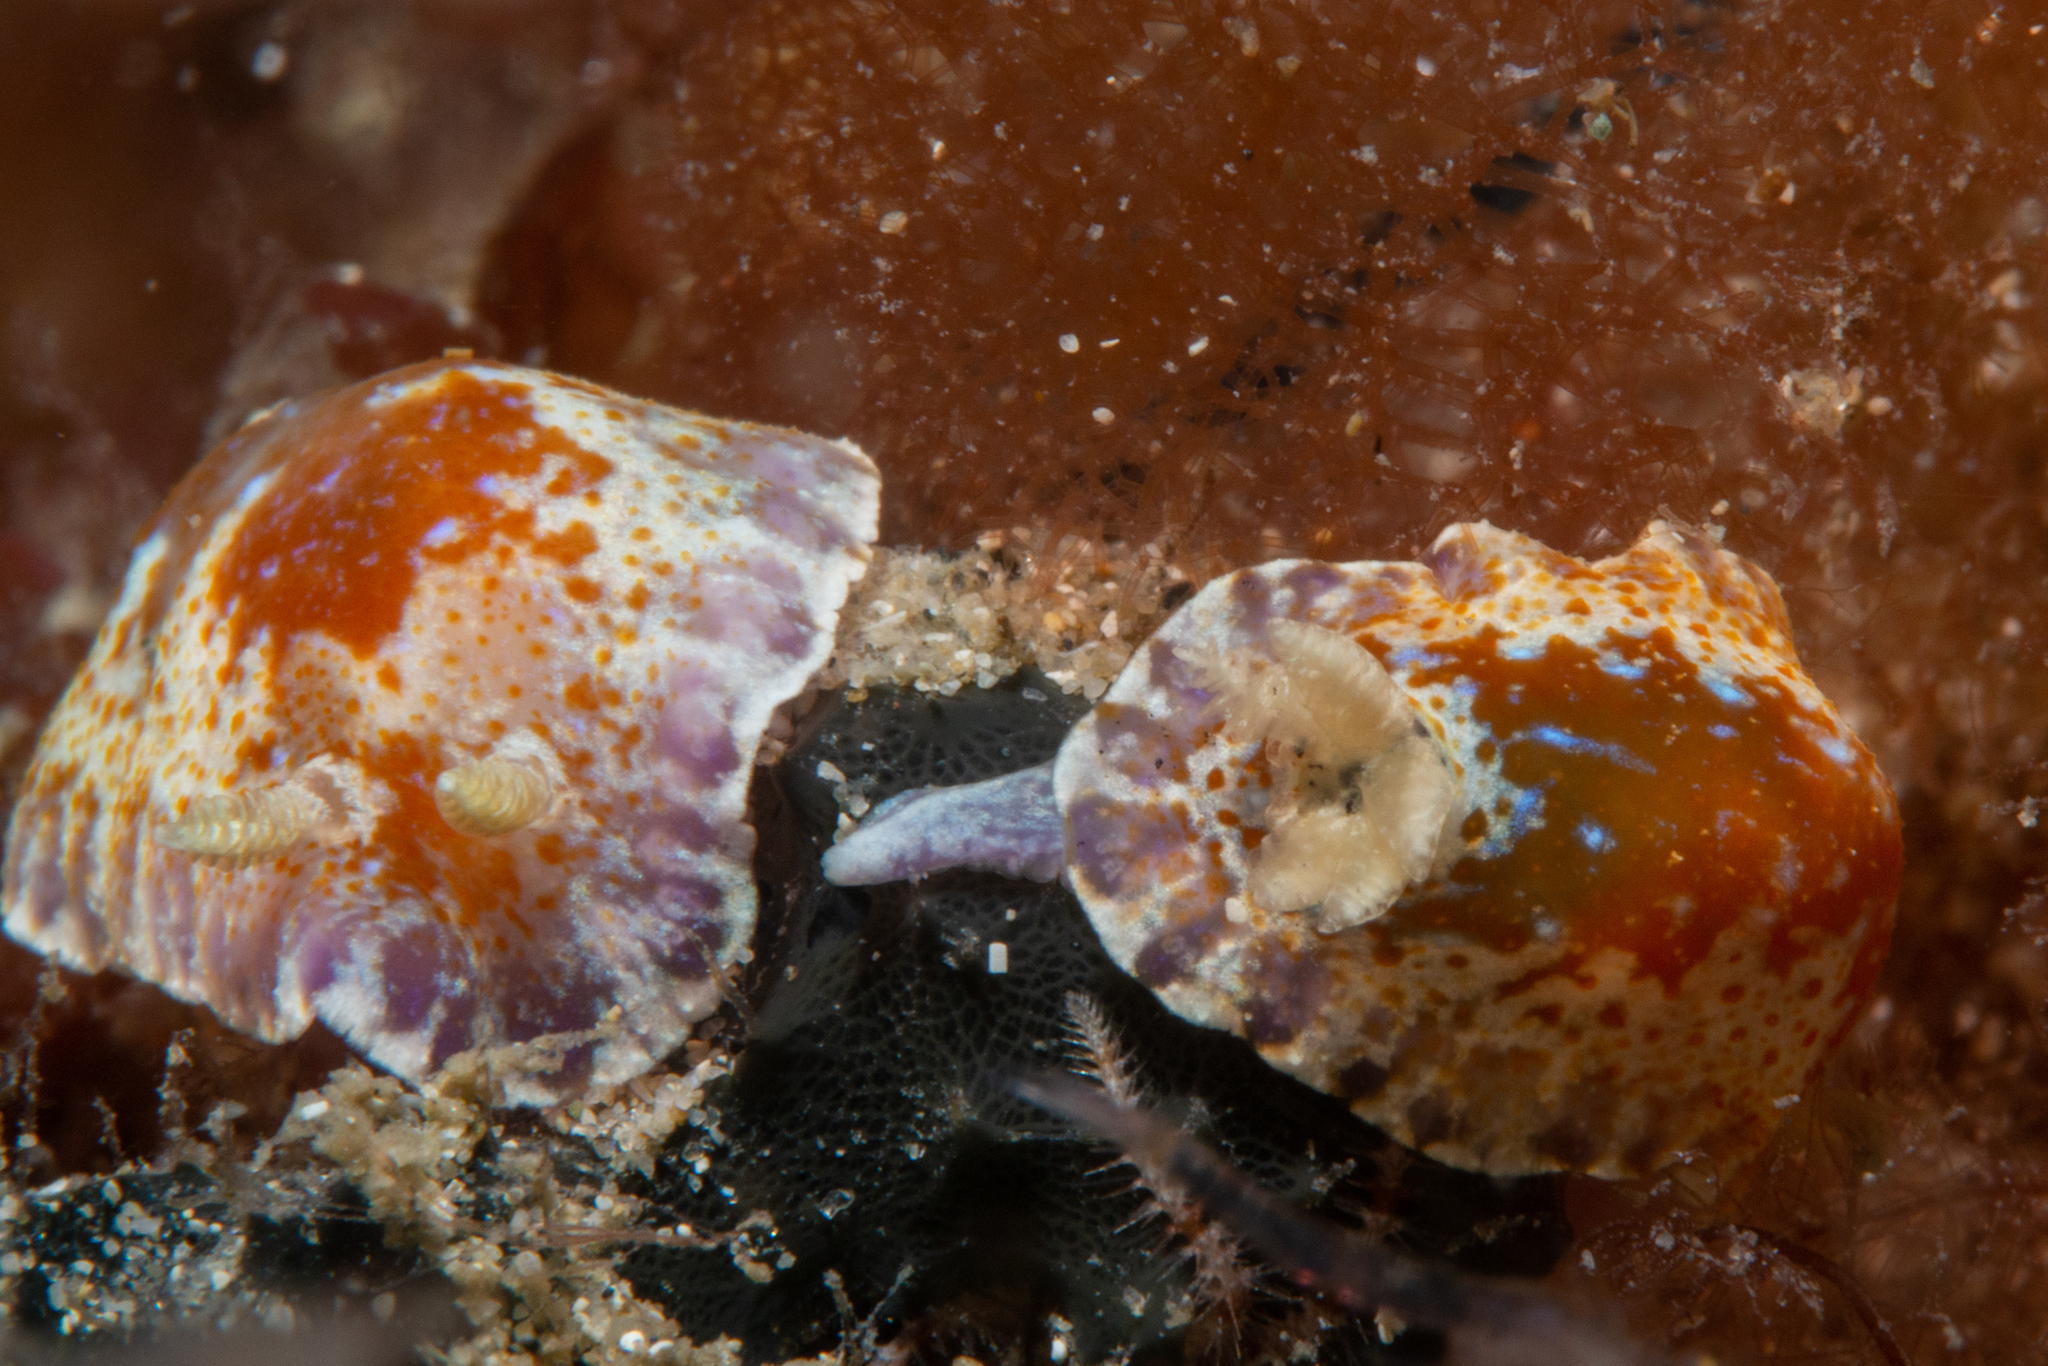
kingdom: Animalia
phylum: Mollusca
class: Gastropoda
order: Nudibranchia
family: Chromodorididae
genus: Chromodoris
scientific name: Chromodoris alternata
